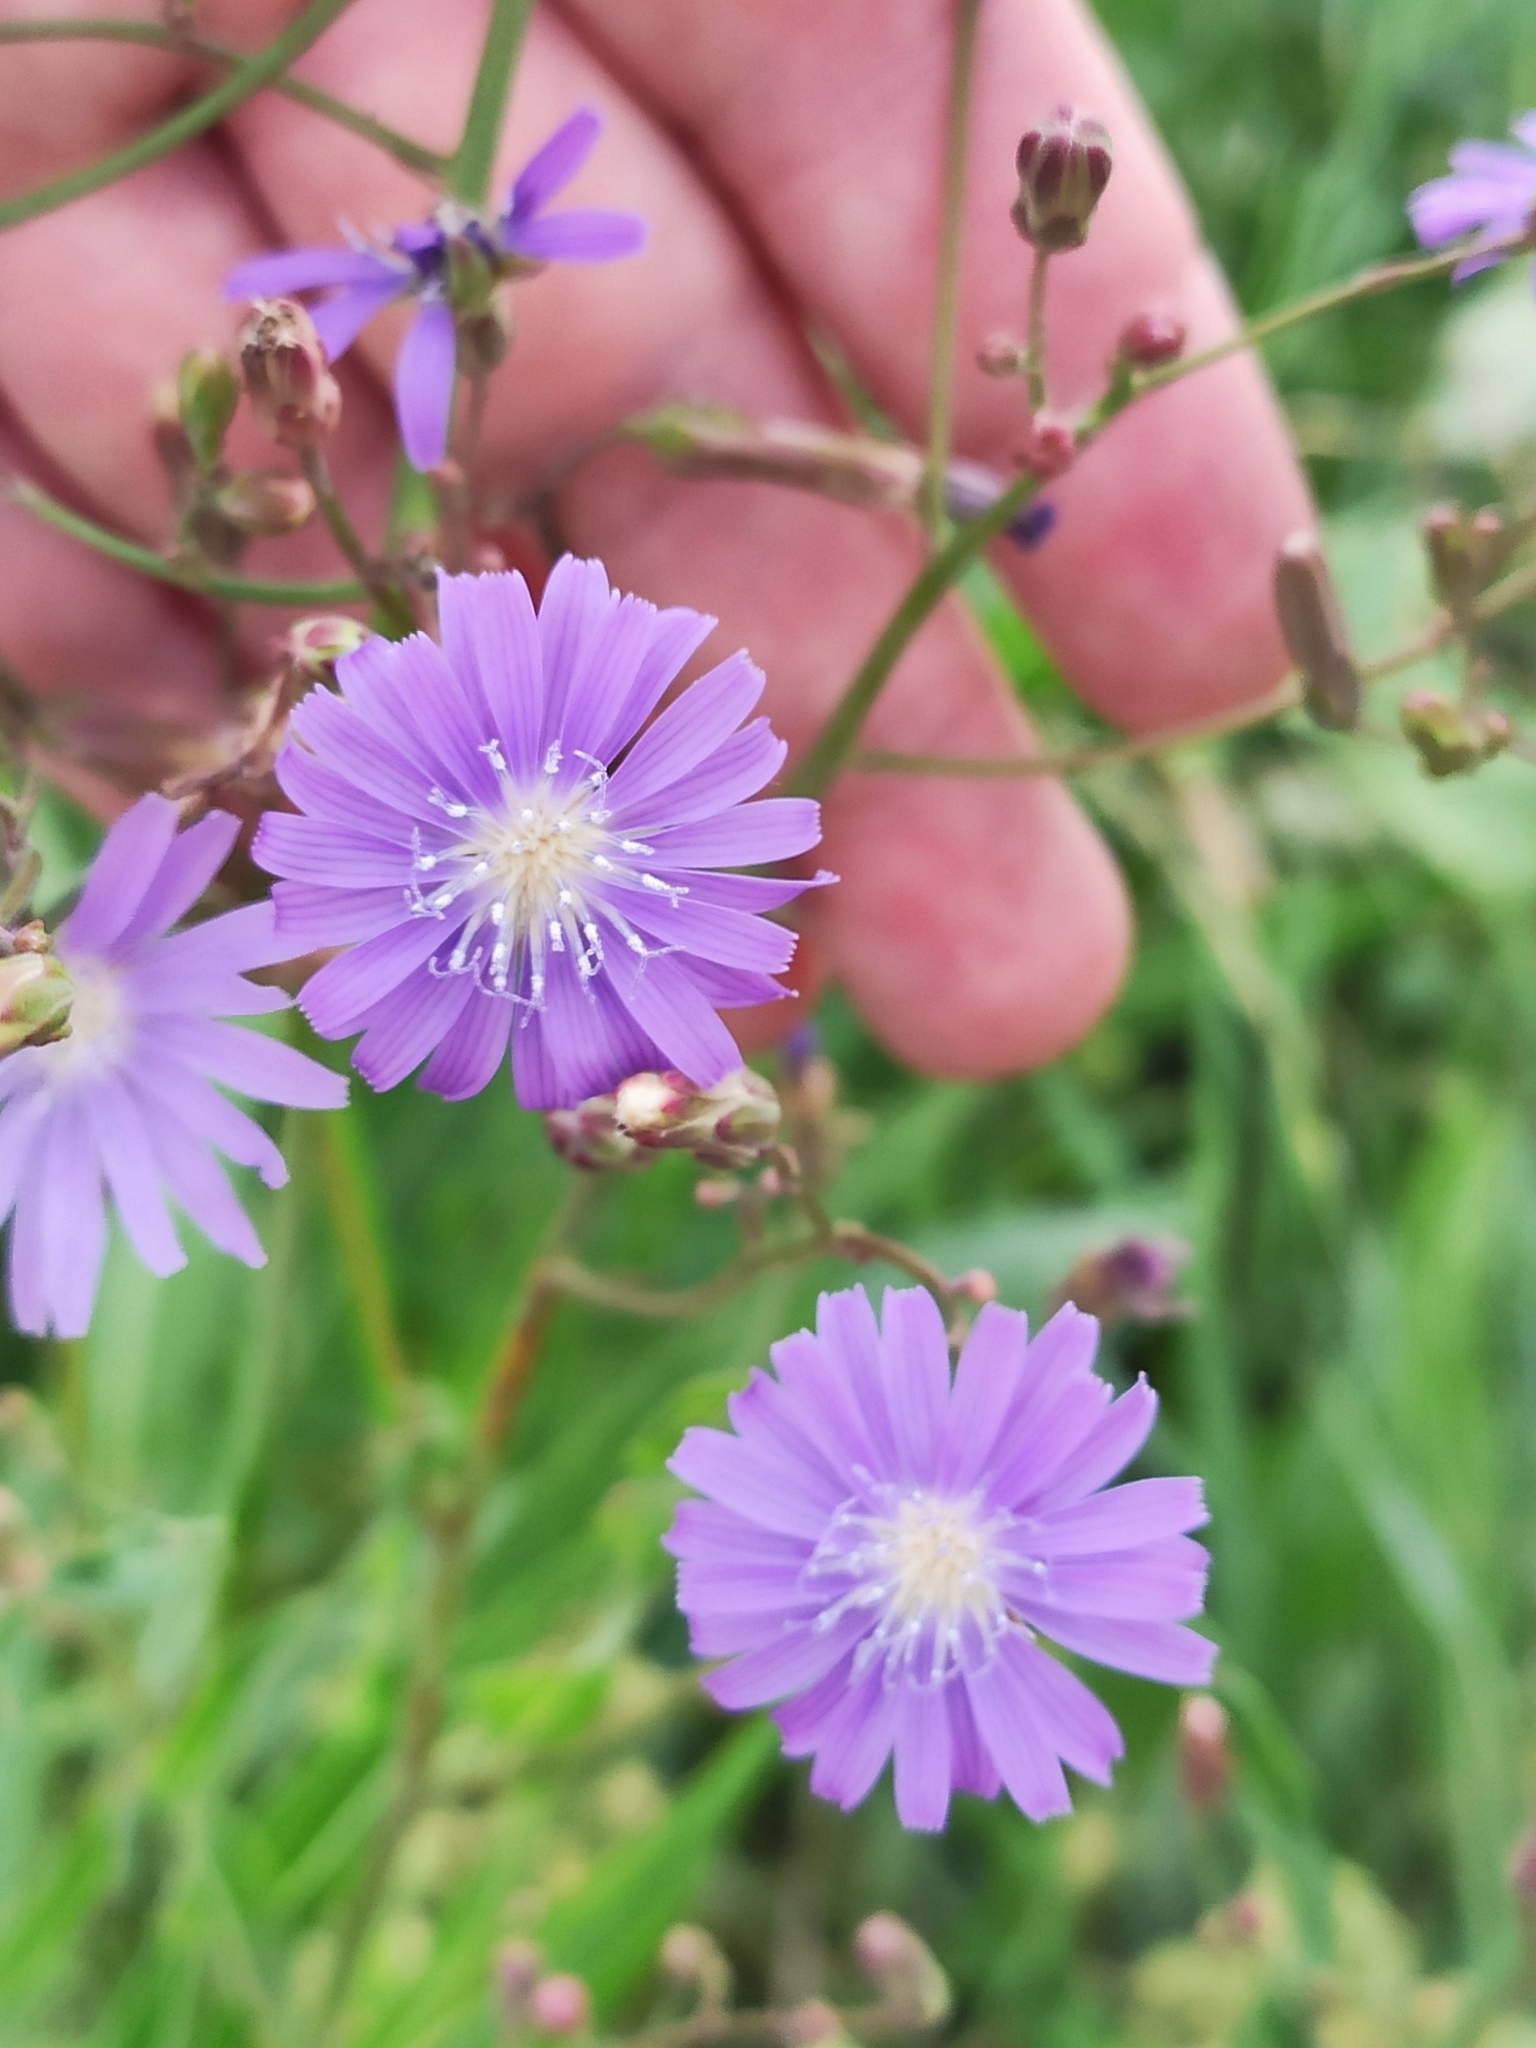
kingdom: Plantae
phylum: Tracheophyta
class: Magnoliopsida
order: Asterales
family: Asteraceae
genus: Lactuca
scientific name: Lactuca tatarica
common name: Blue lettuce
